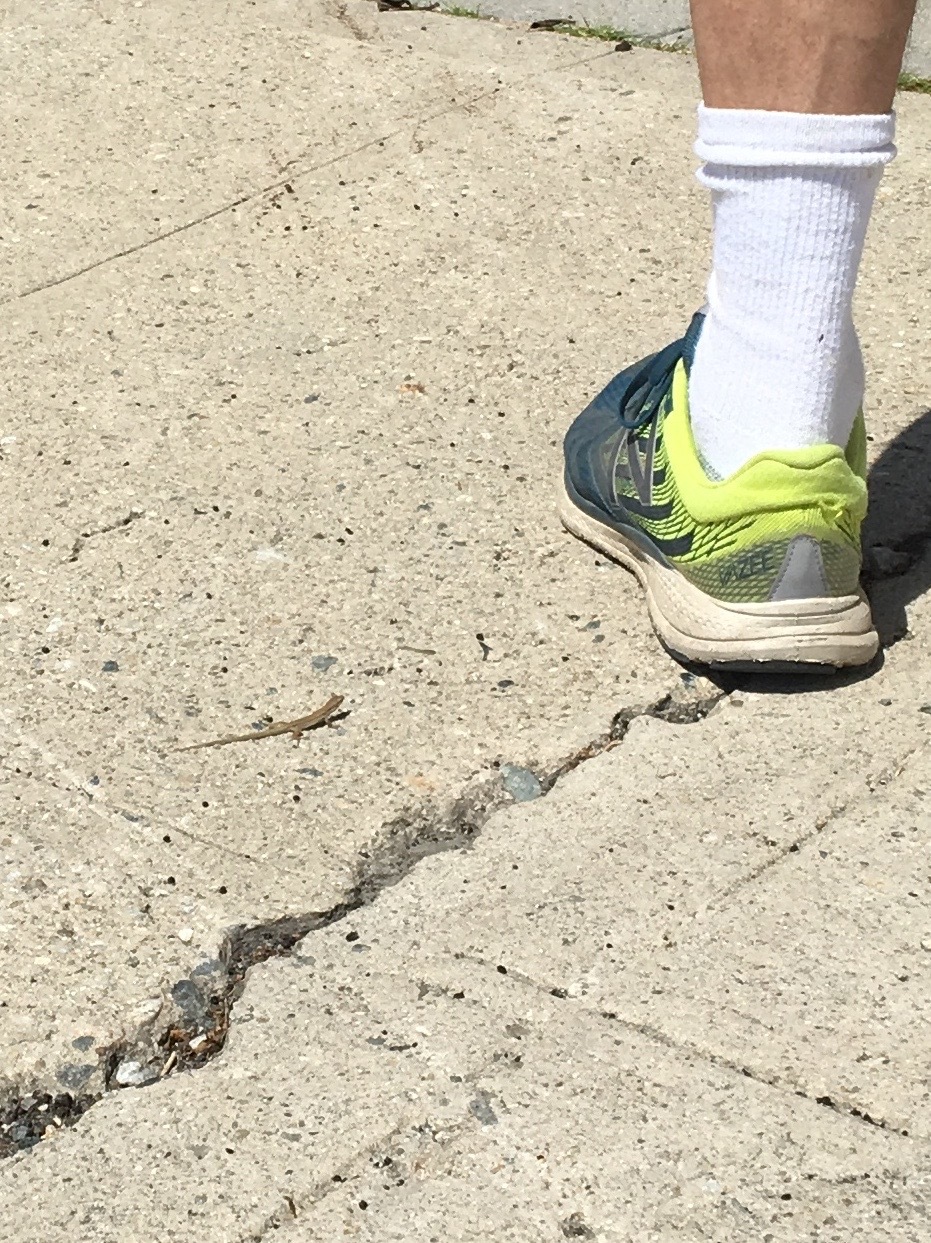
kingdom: Animalia
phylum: Chordata
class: Squamata
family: Lacertidae
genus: Podarcis
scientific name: Podarcis siculus
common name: Italian wall lizard
